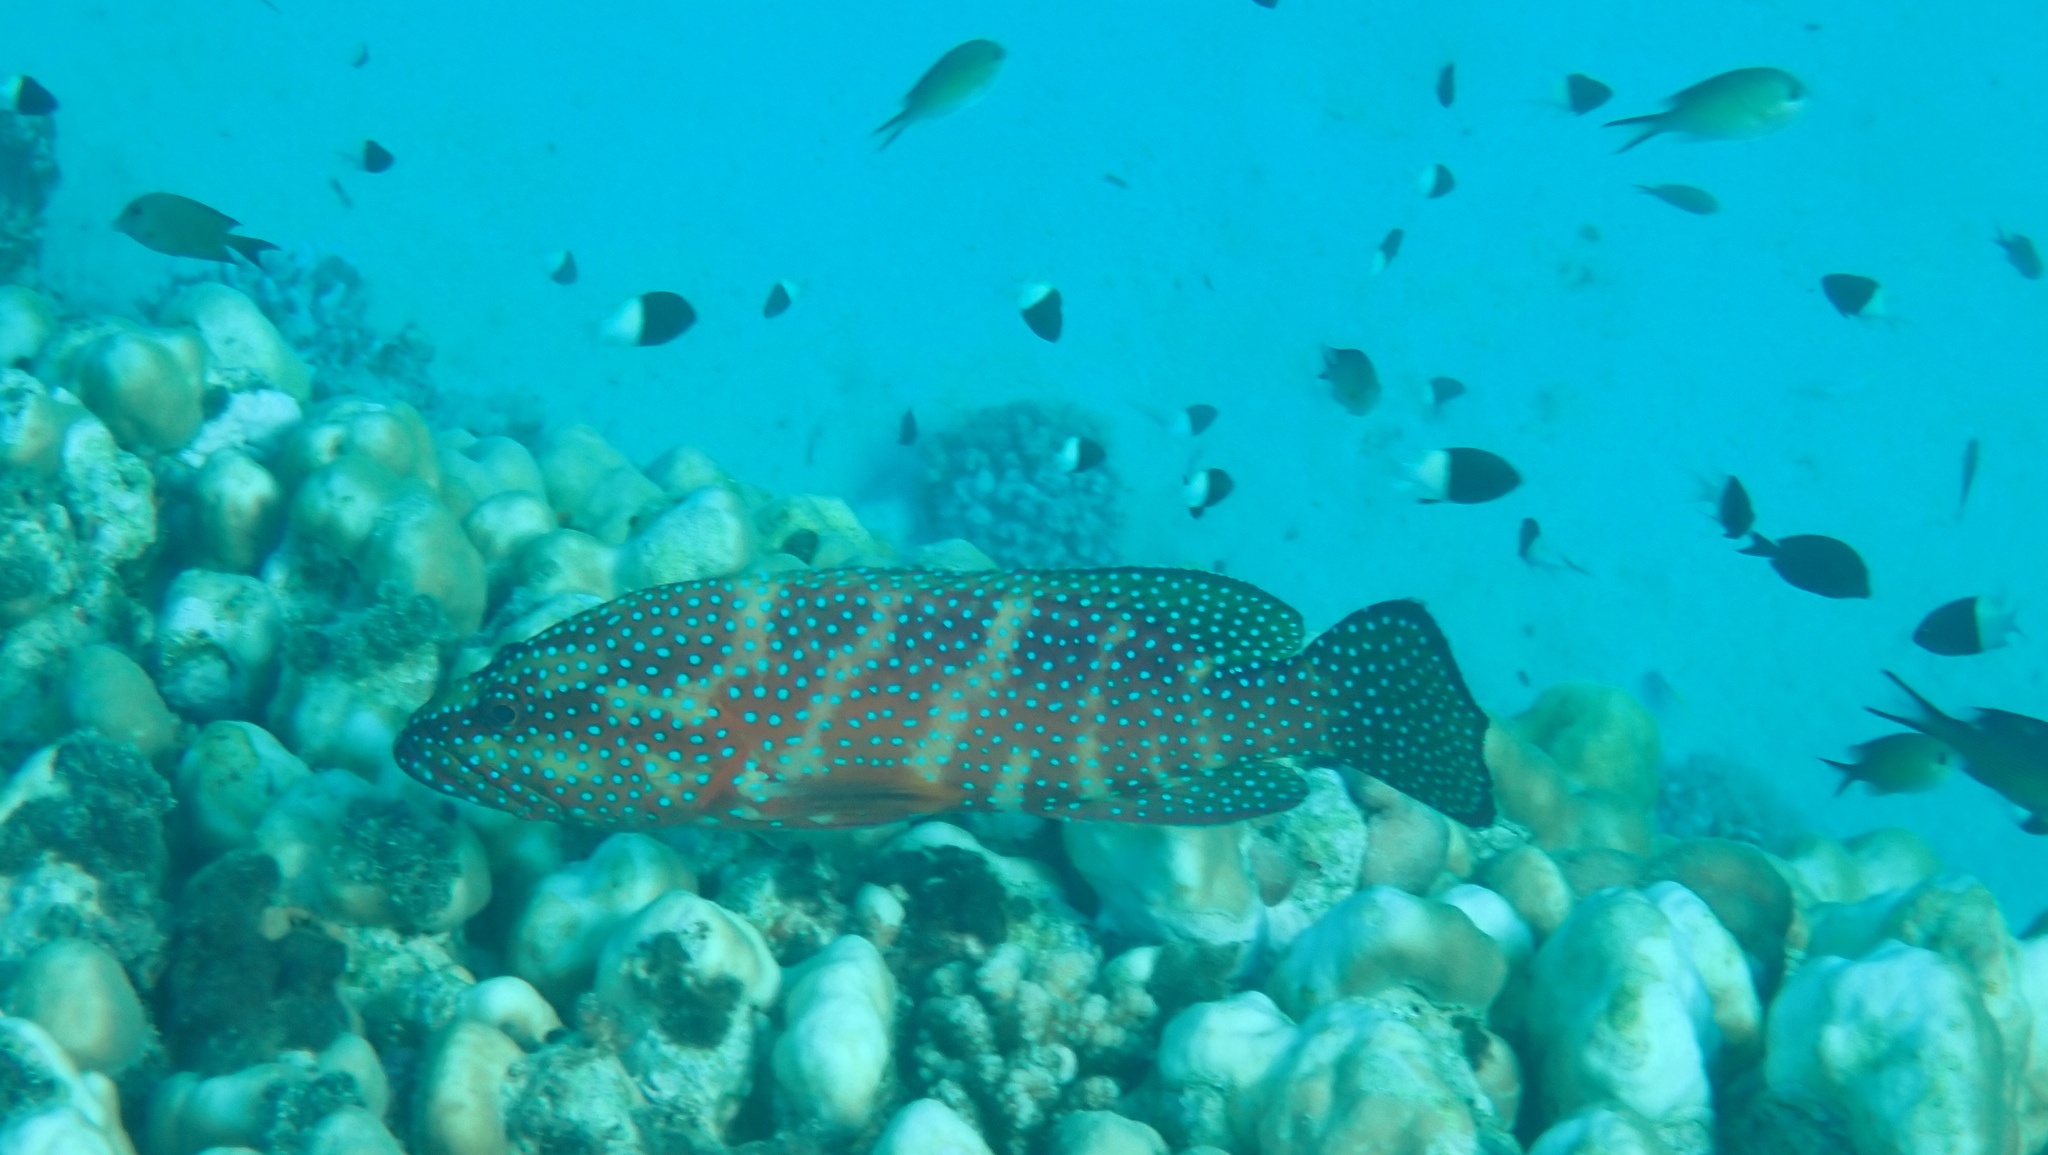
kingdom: Animalia
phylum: Chordata
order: Perciformes
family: Serranidae
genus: Cephalopholis
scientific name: Cephalopholis miniata
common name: Coral hind
